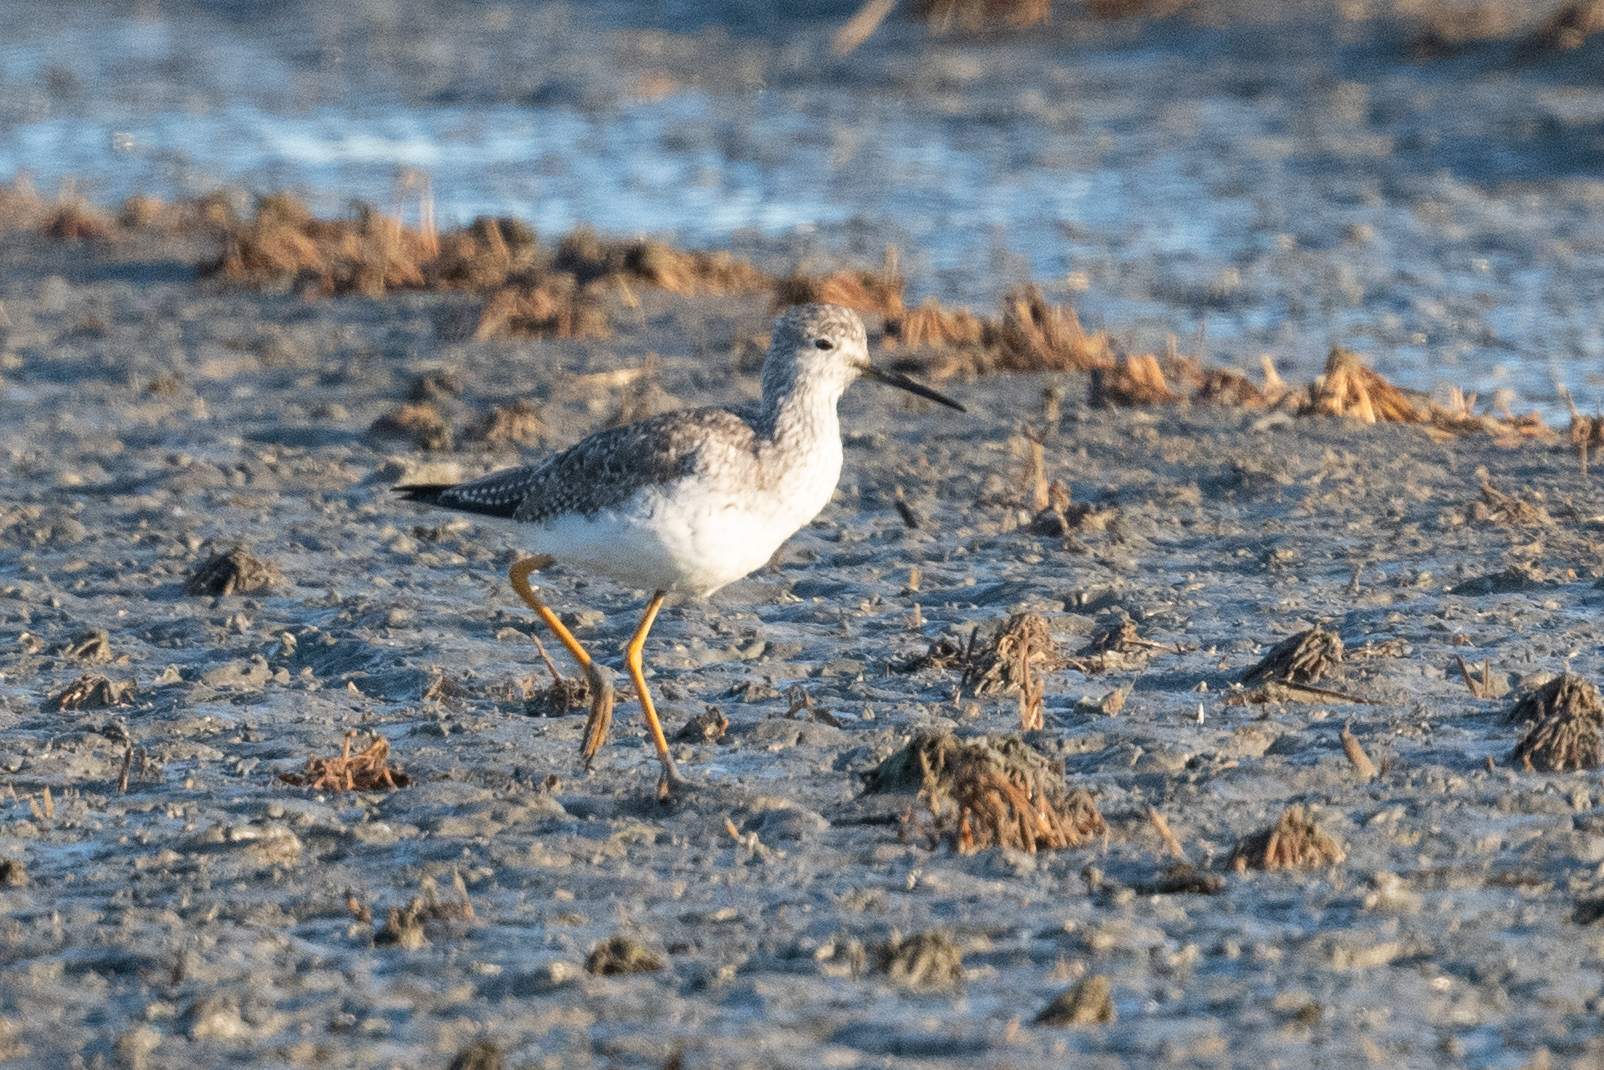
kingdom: Animalia
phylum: Chordata
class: Aves
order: Charadriiformes
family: Scolopacidae
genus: Tringa
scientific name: Tringa melanoleuca
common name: Greater yellowlegs
